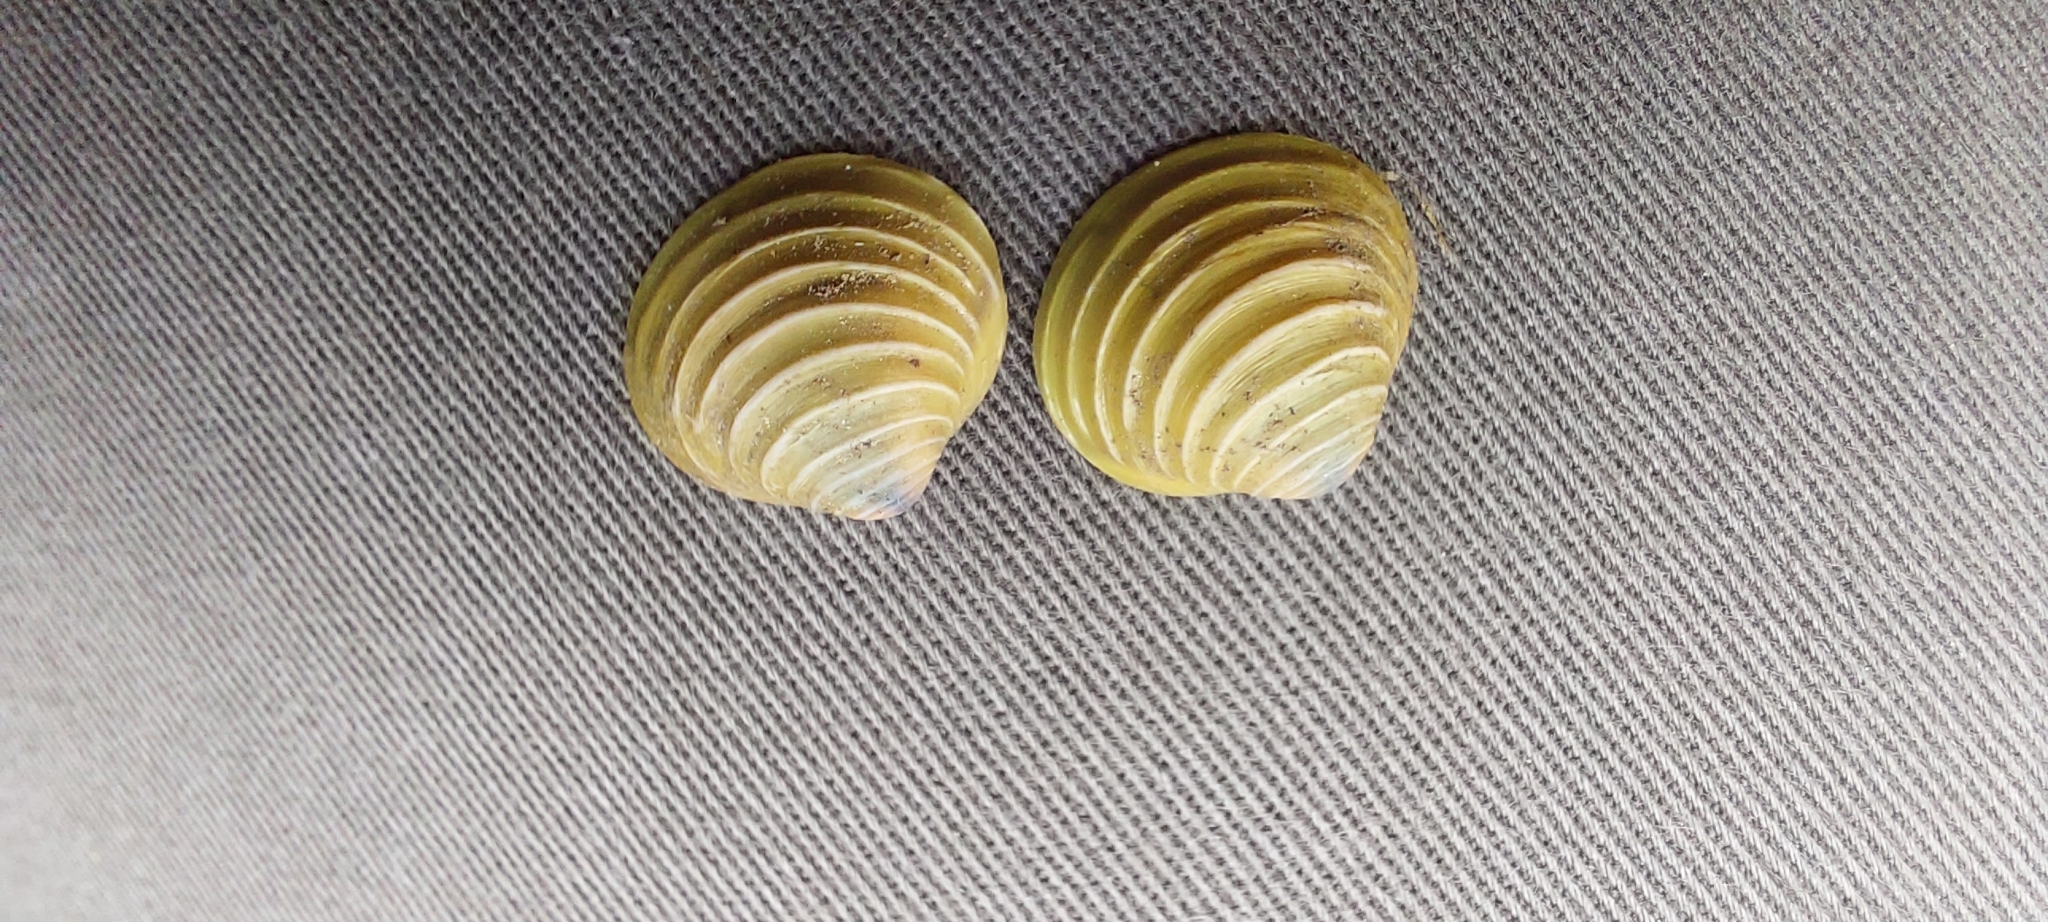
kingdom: Animalia
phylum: Mollusca
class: Bivalvia
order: Venerida
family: Cyrenidae
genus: Corbicula
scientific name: Corbicula fluminea
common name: Asian clam
